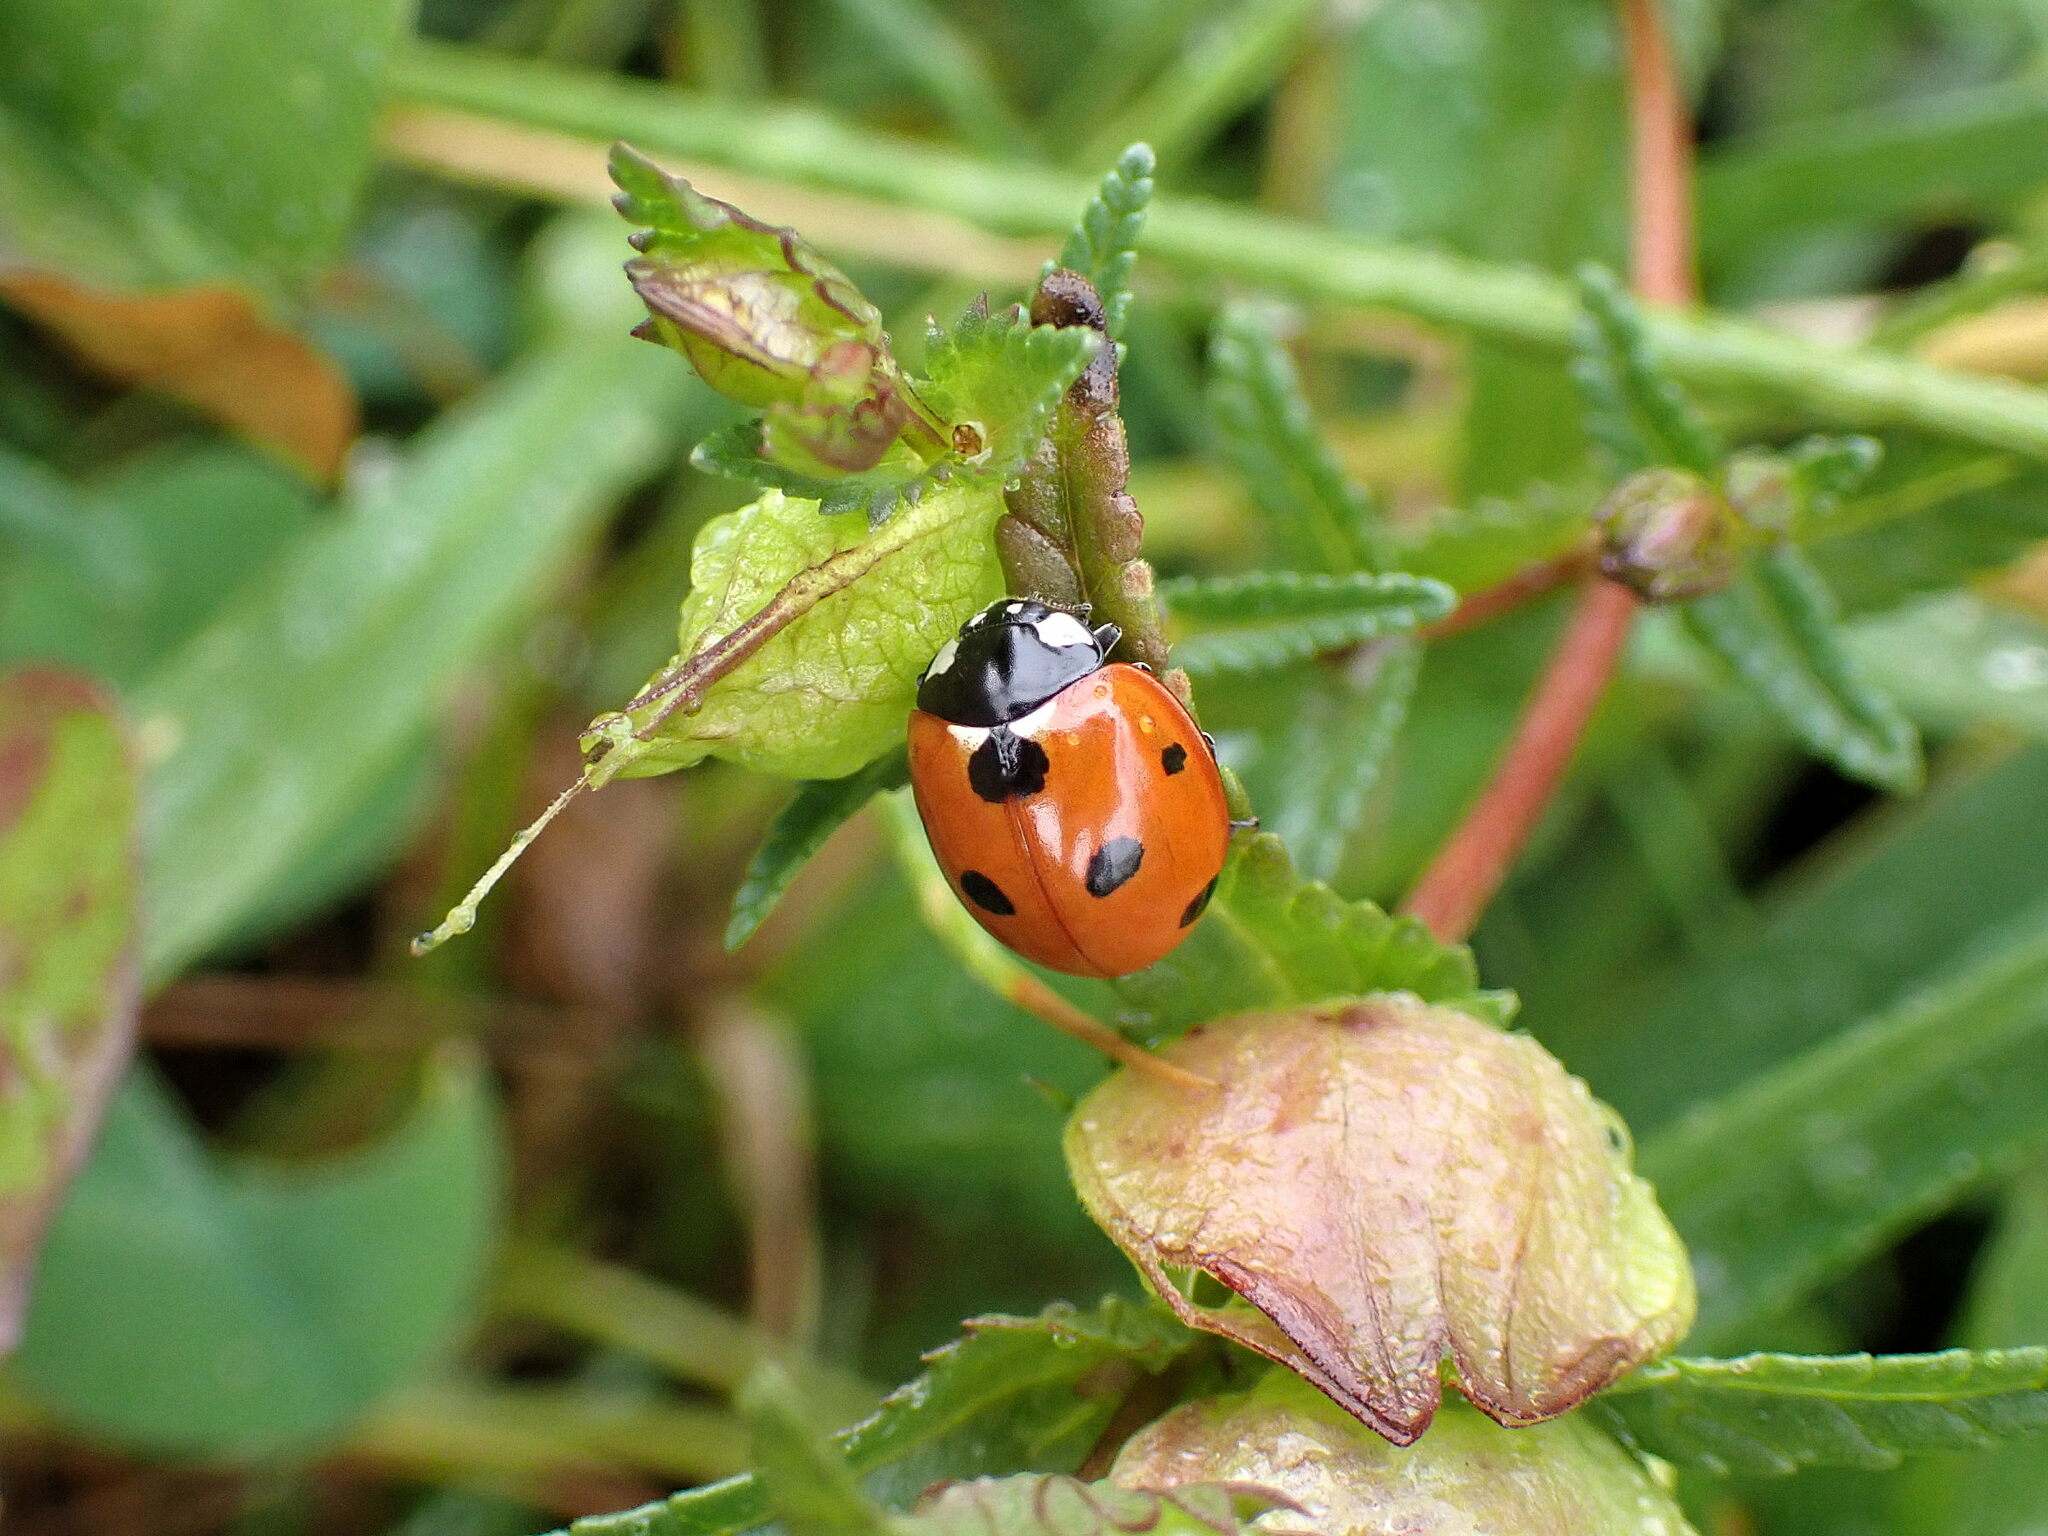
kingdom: Animalia
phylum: Arthropoda
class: Insecta
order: Coleoptera
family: Coccinellidae
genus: Coccinella
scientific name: Coccinella septempunctata
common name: Sevenspotted lady beetle
